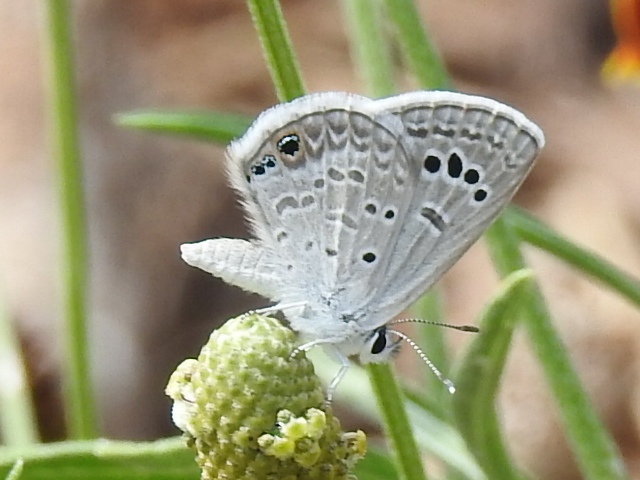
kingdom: Animalia
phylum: Arthropoda
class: Insecta
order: Lepidoptera
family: Lycaenidae
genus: Echinargus
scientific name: Echinargus isola
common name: Reakirt's blue
